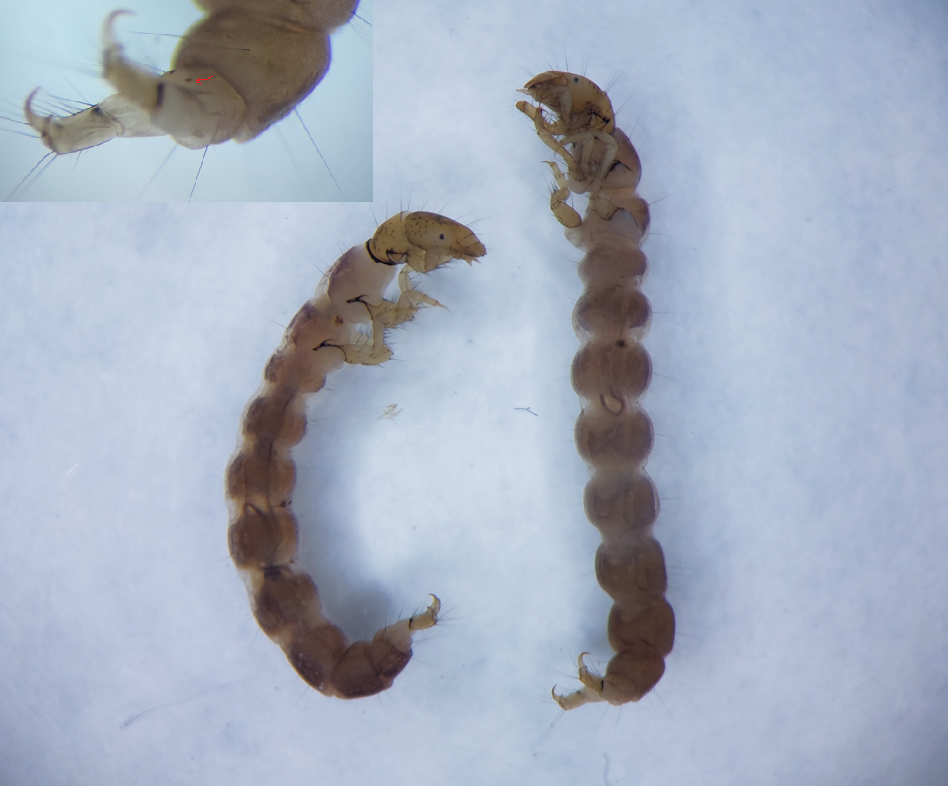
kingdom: Animalia
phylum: Arthropoda
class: Insecta
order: Trichoptera
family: Polycentropodidae
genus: Neureclipsis
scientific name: Neureclipsis bimaculata
